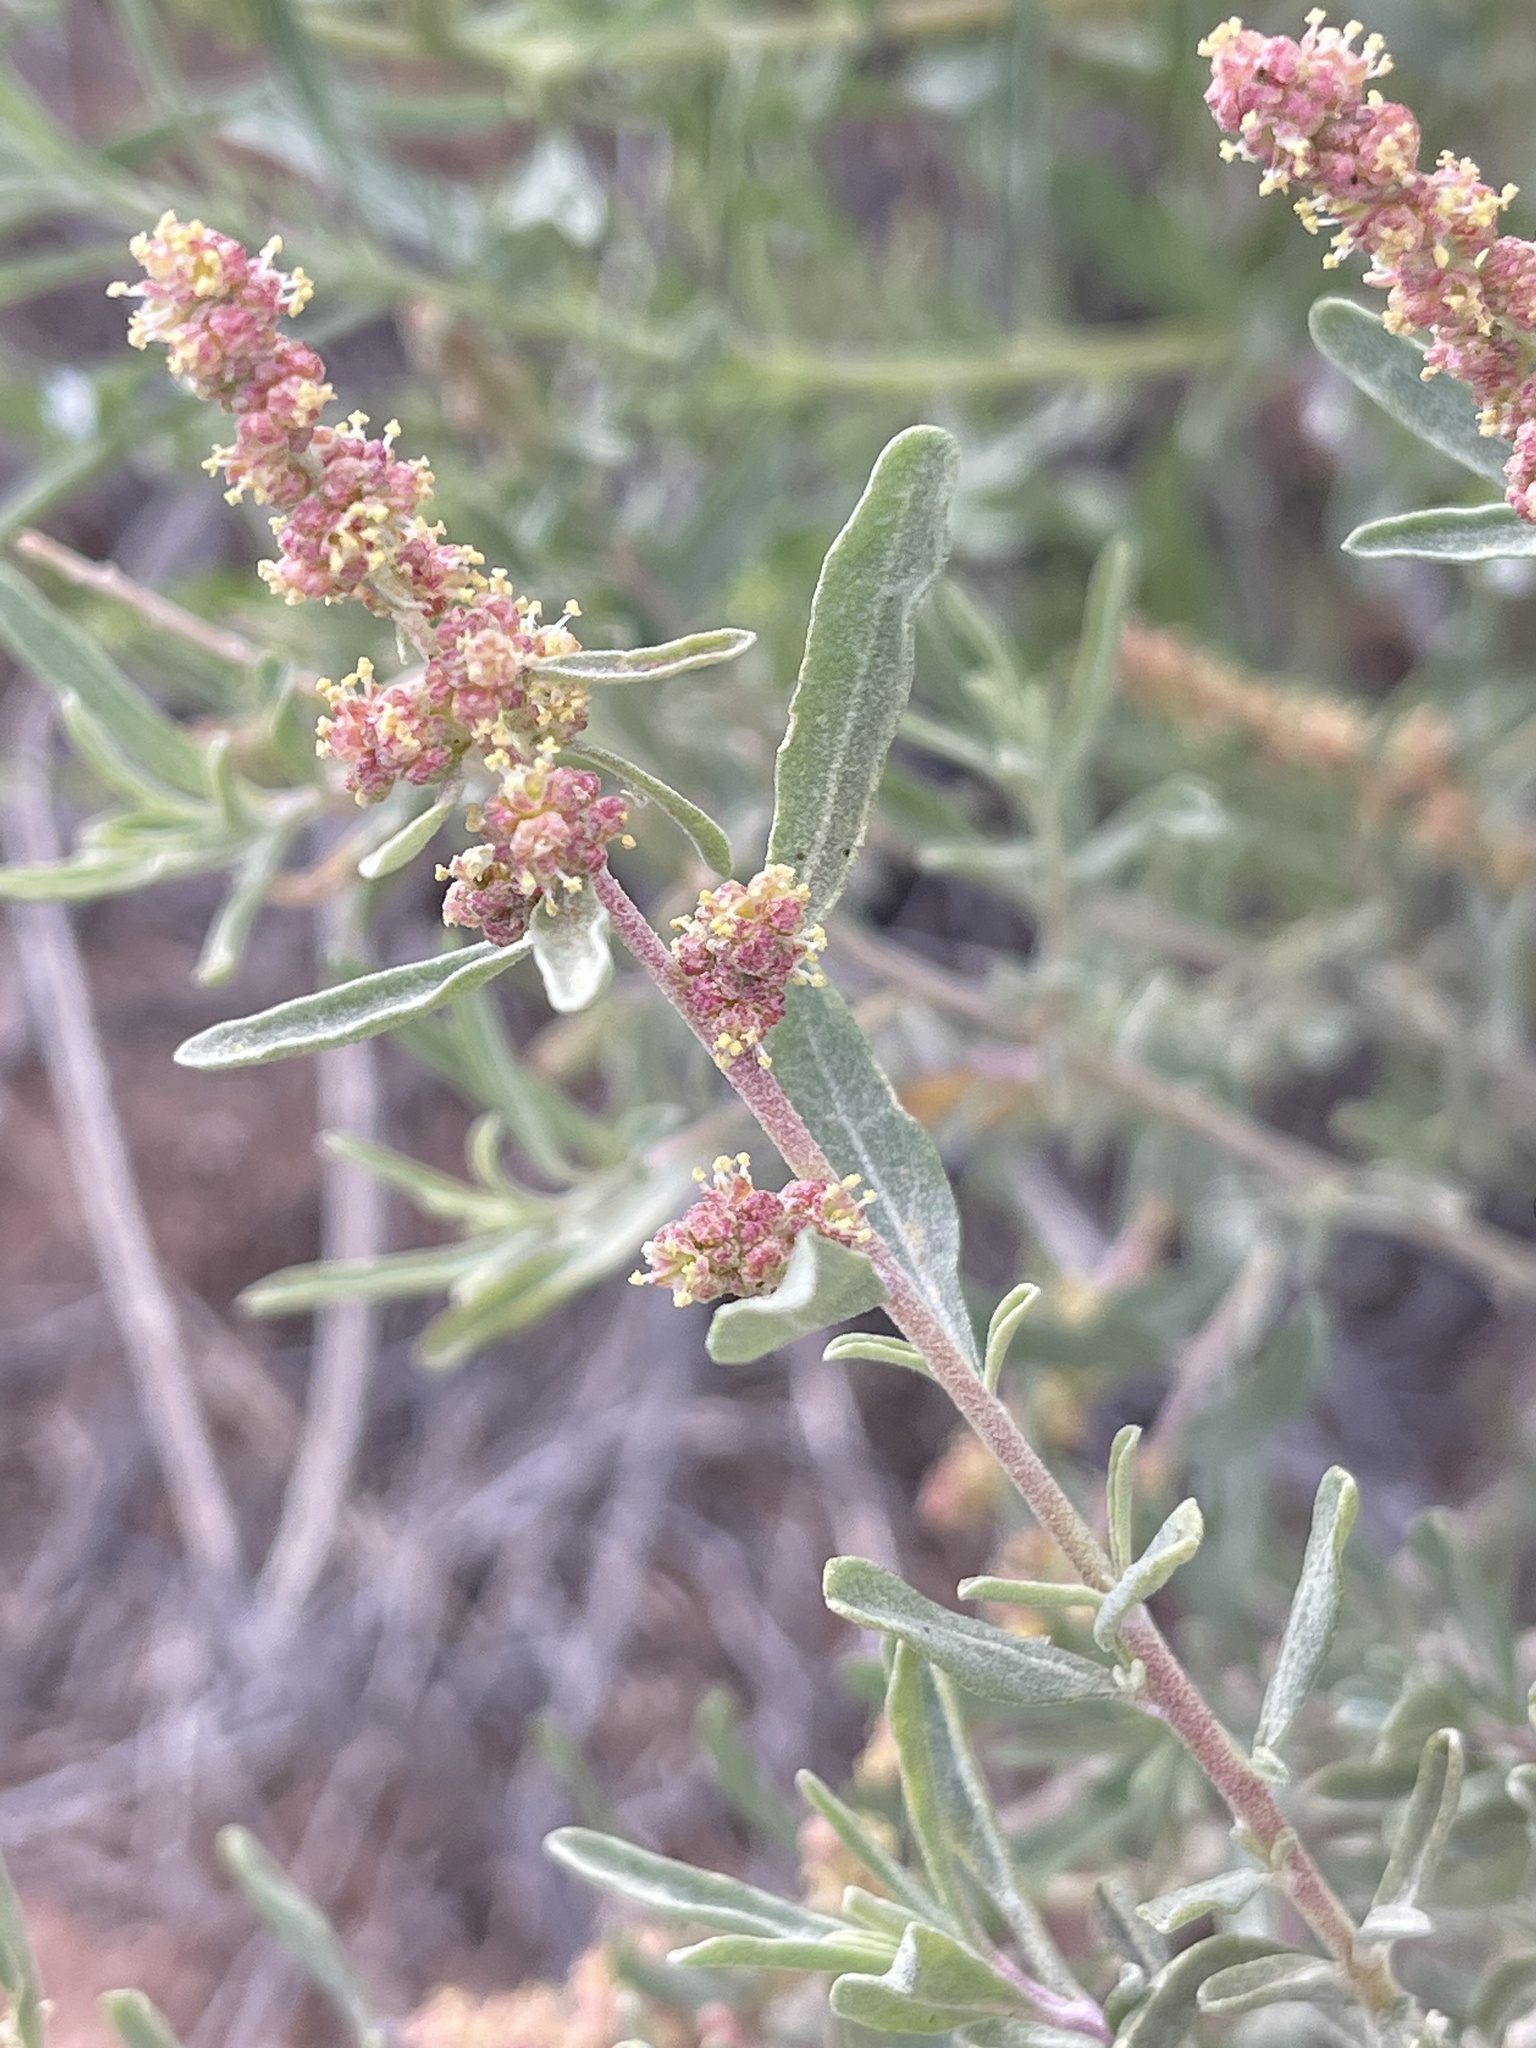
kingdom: Plantae
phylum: Tracheophyta
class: Magnoliopsida
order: Caryophyllales
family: Amaranthaceae
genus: Atriplex
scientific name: Atriplex canescens
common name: Four-wing saltbush
